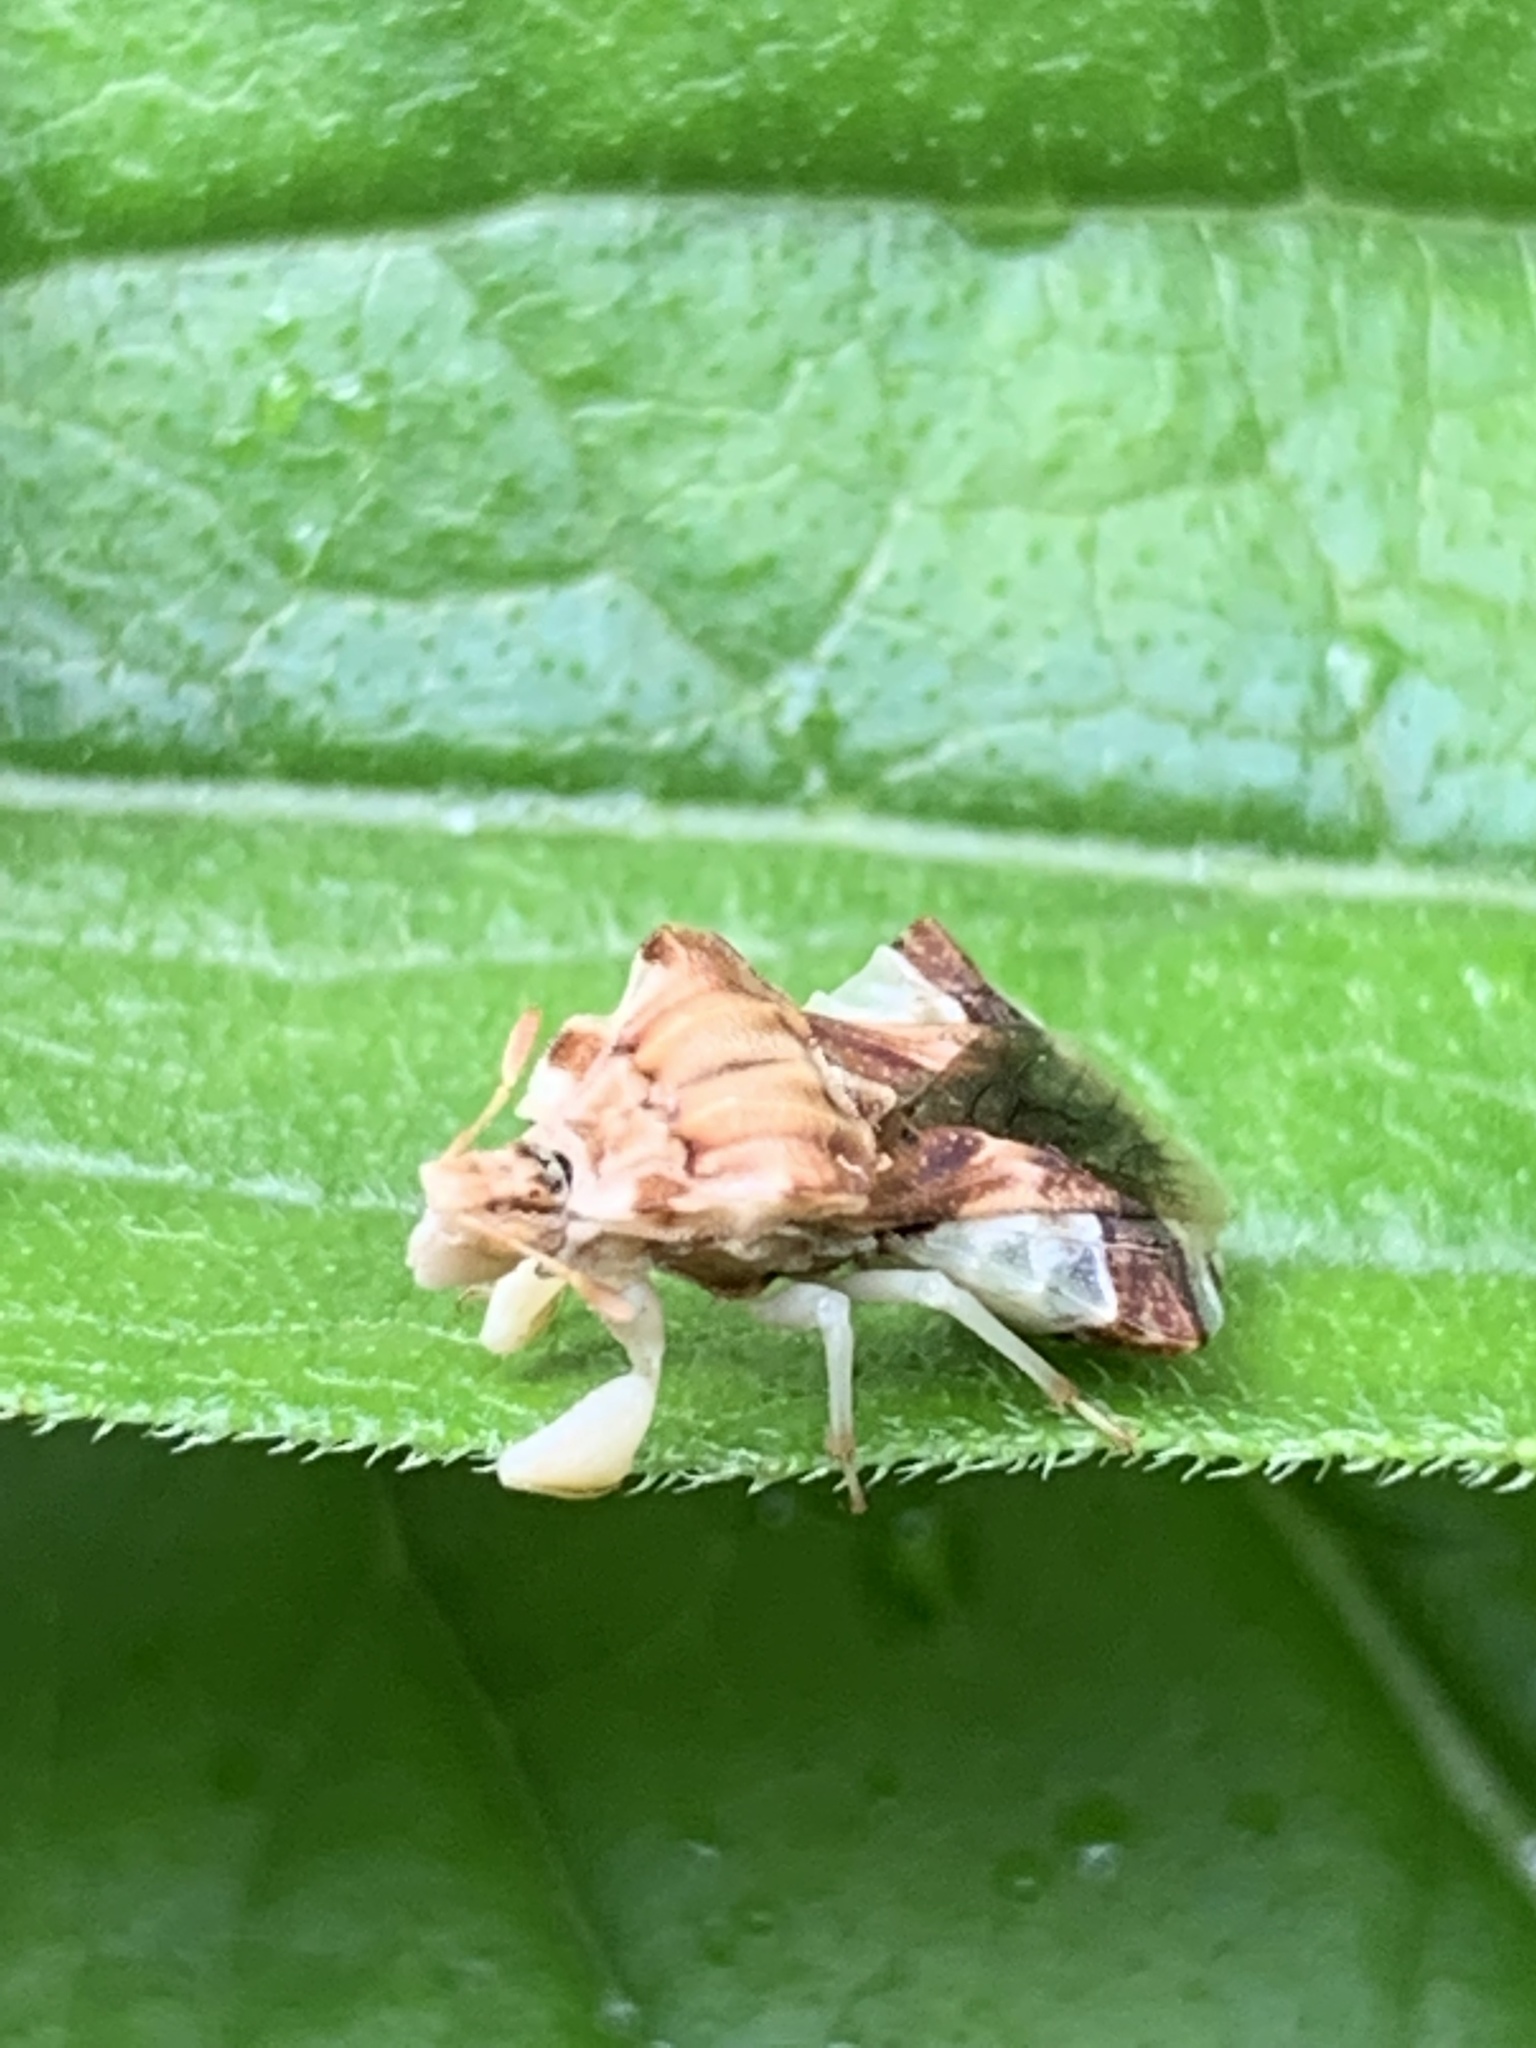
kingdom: Animalia
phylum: Arthropoda
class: Insecta
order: Hemiptera
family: Reduviidae
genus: Phymata
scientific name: Phymata fasciata
